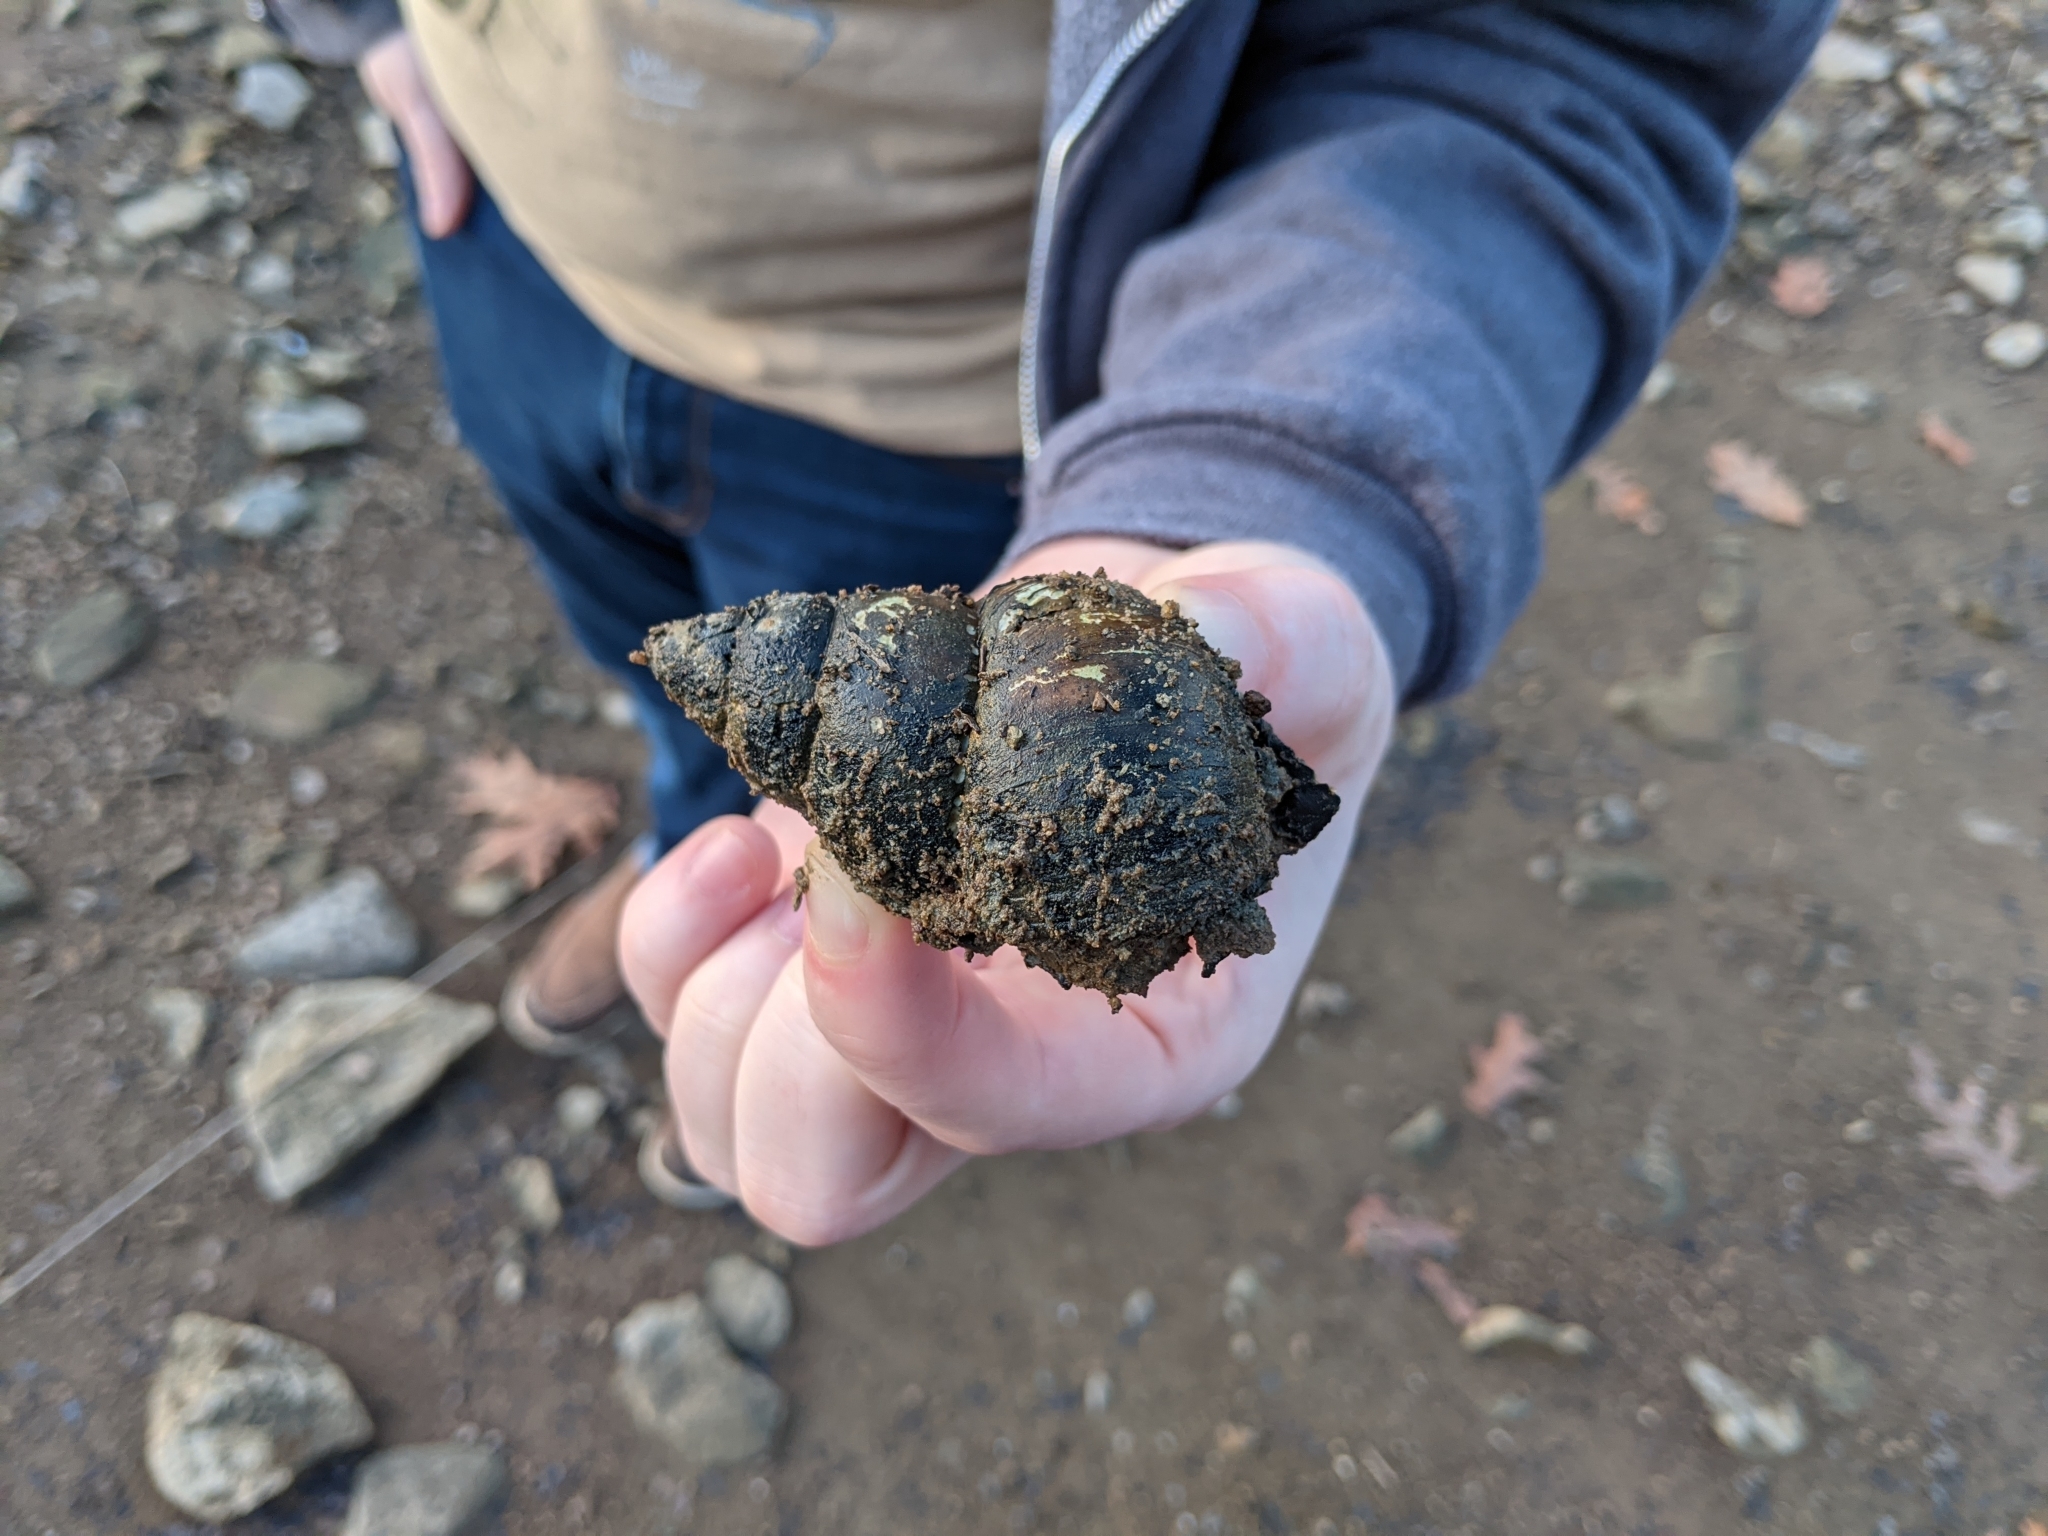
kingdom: Animalia
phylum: Mollusca
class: Gastropoda
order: Architaenioglossa
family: Viviparidae
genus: Cipangopaludina
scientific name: Cipangopaludina chinensis
